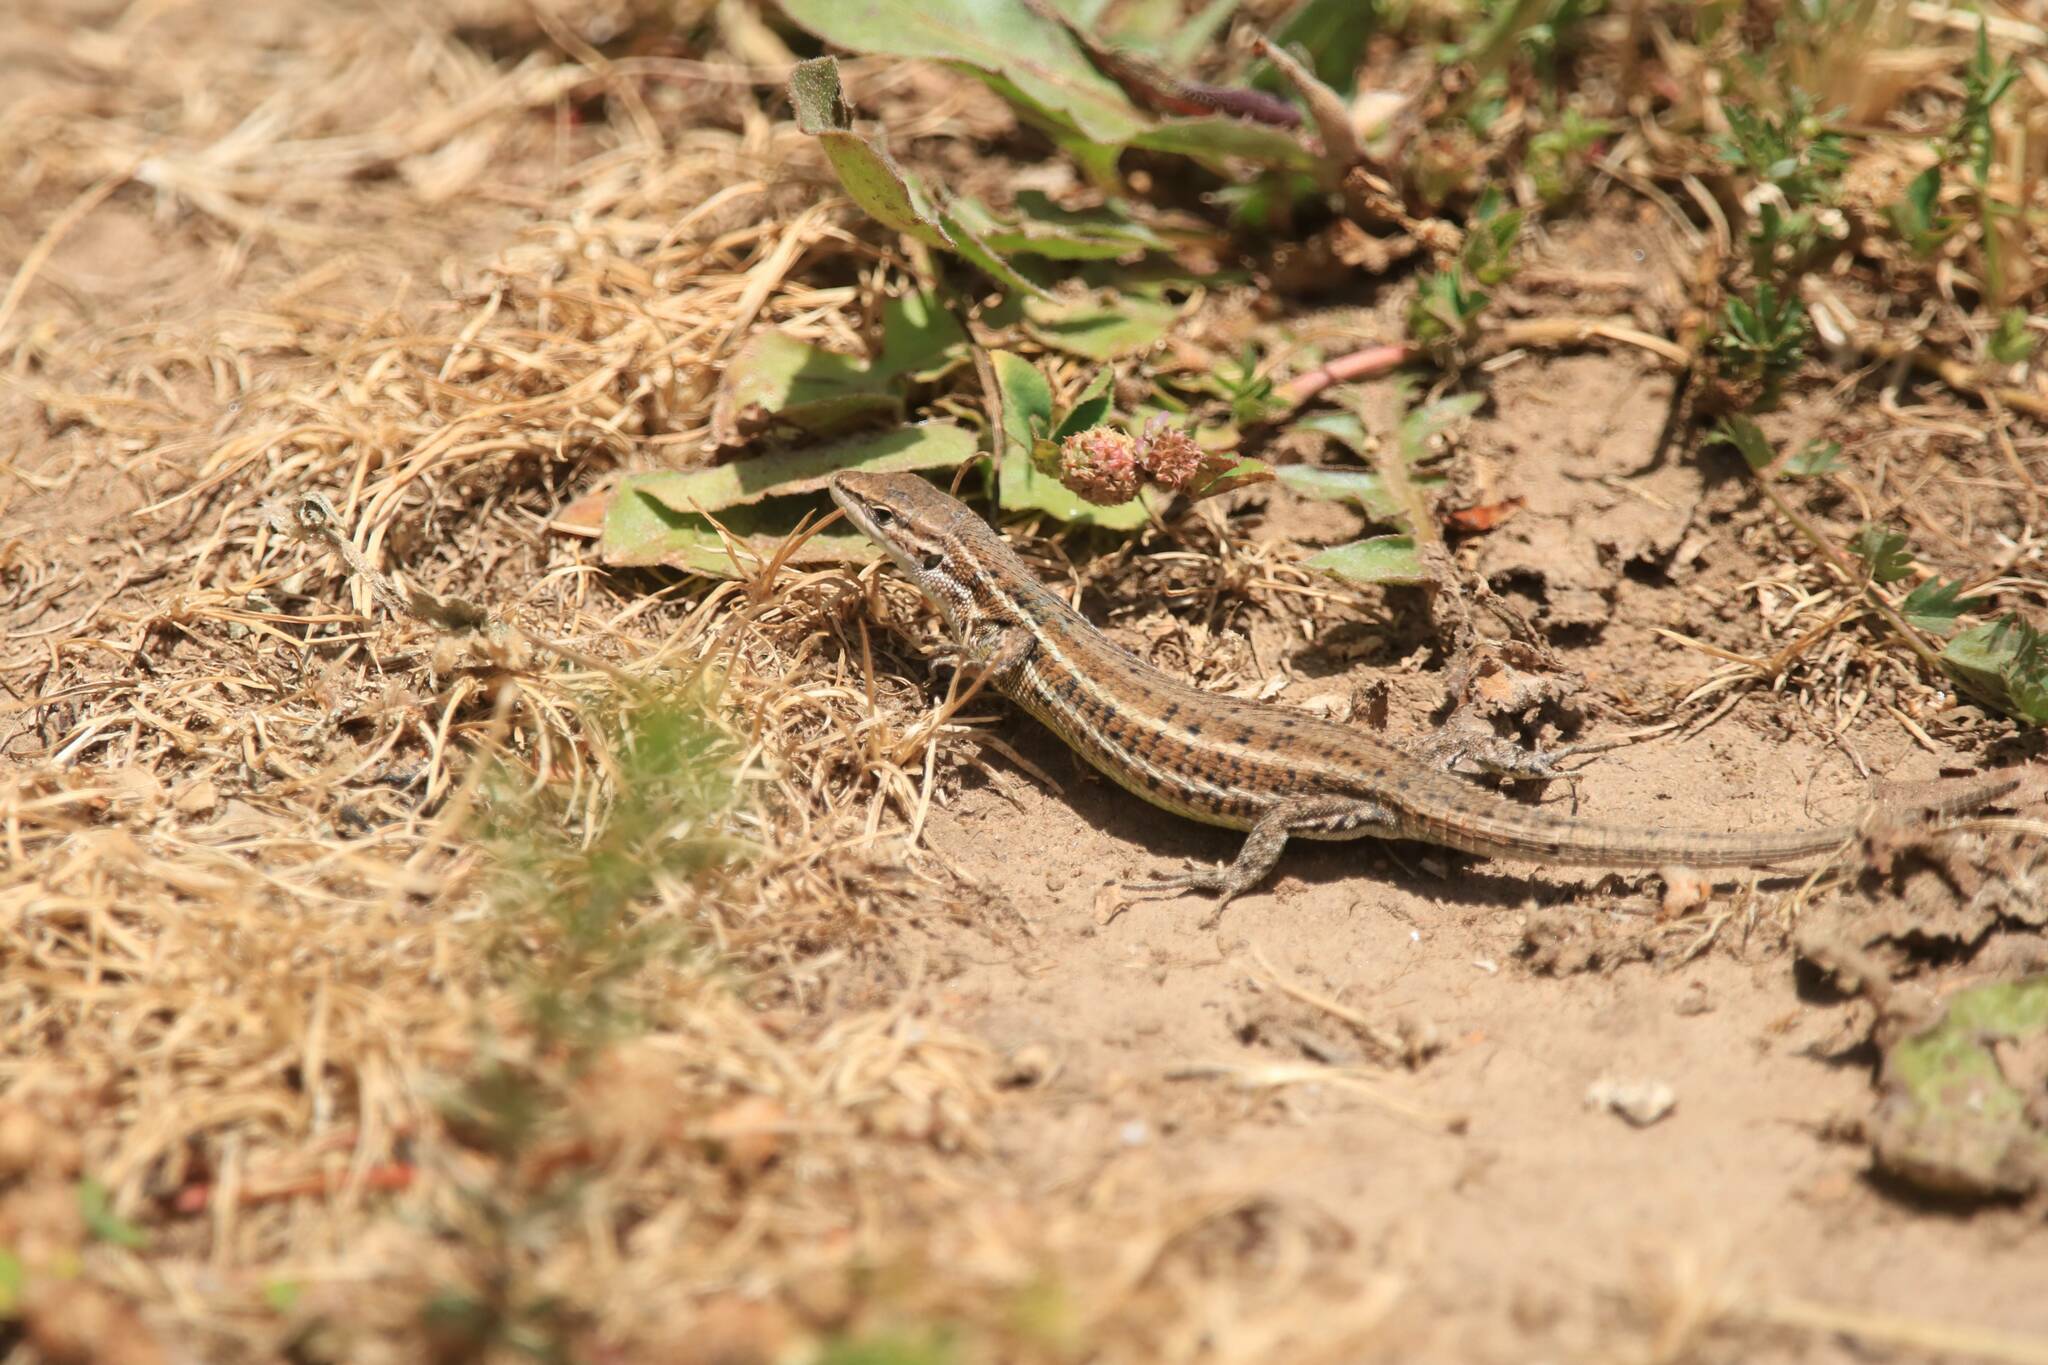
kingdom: Animalia
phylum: Chordata
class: Squamata
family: Lacertidae
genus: Psammodromus
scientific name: Psammodromus blanci
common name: Blank's psammodromus
